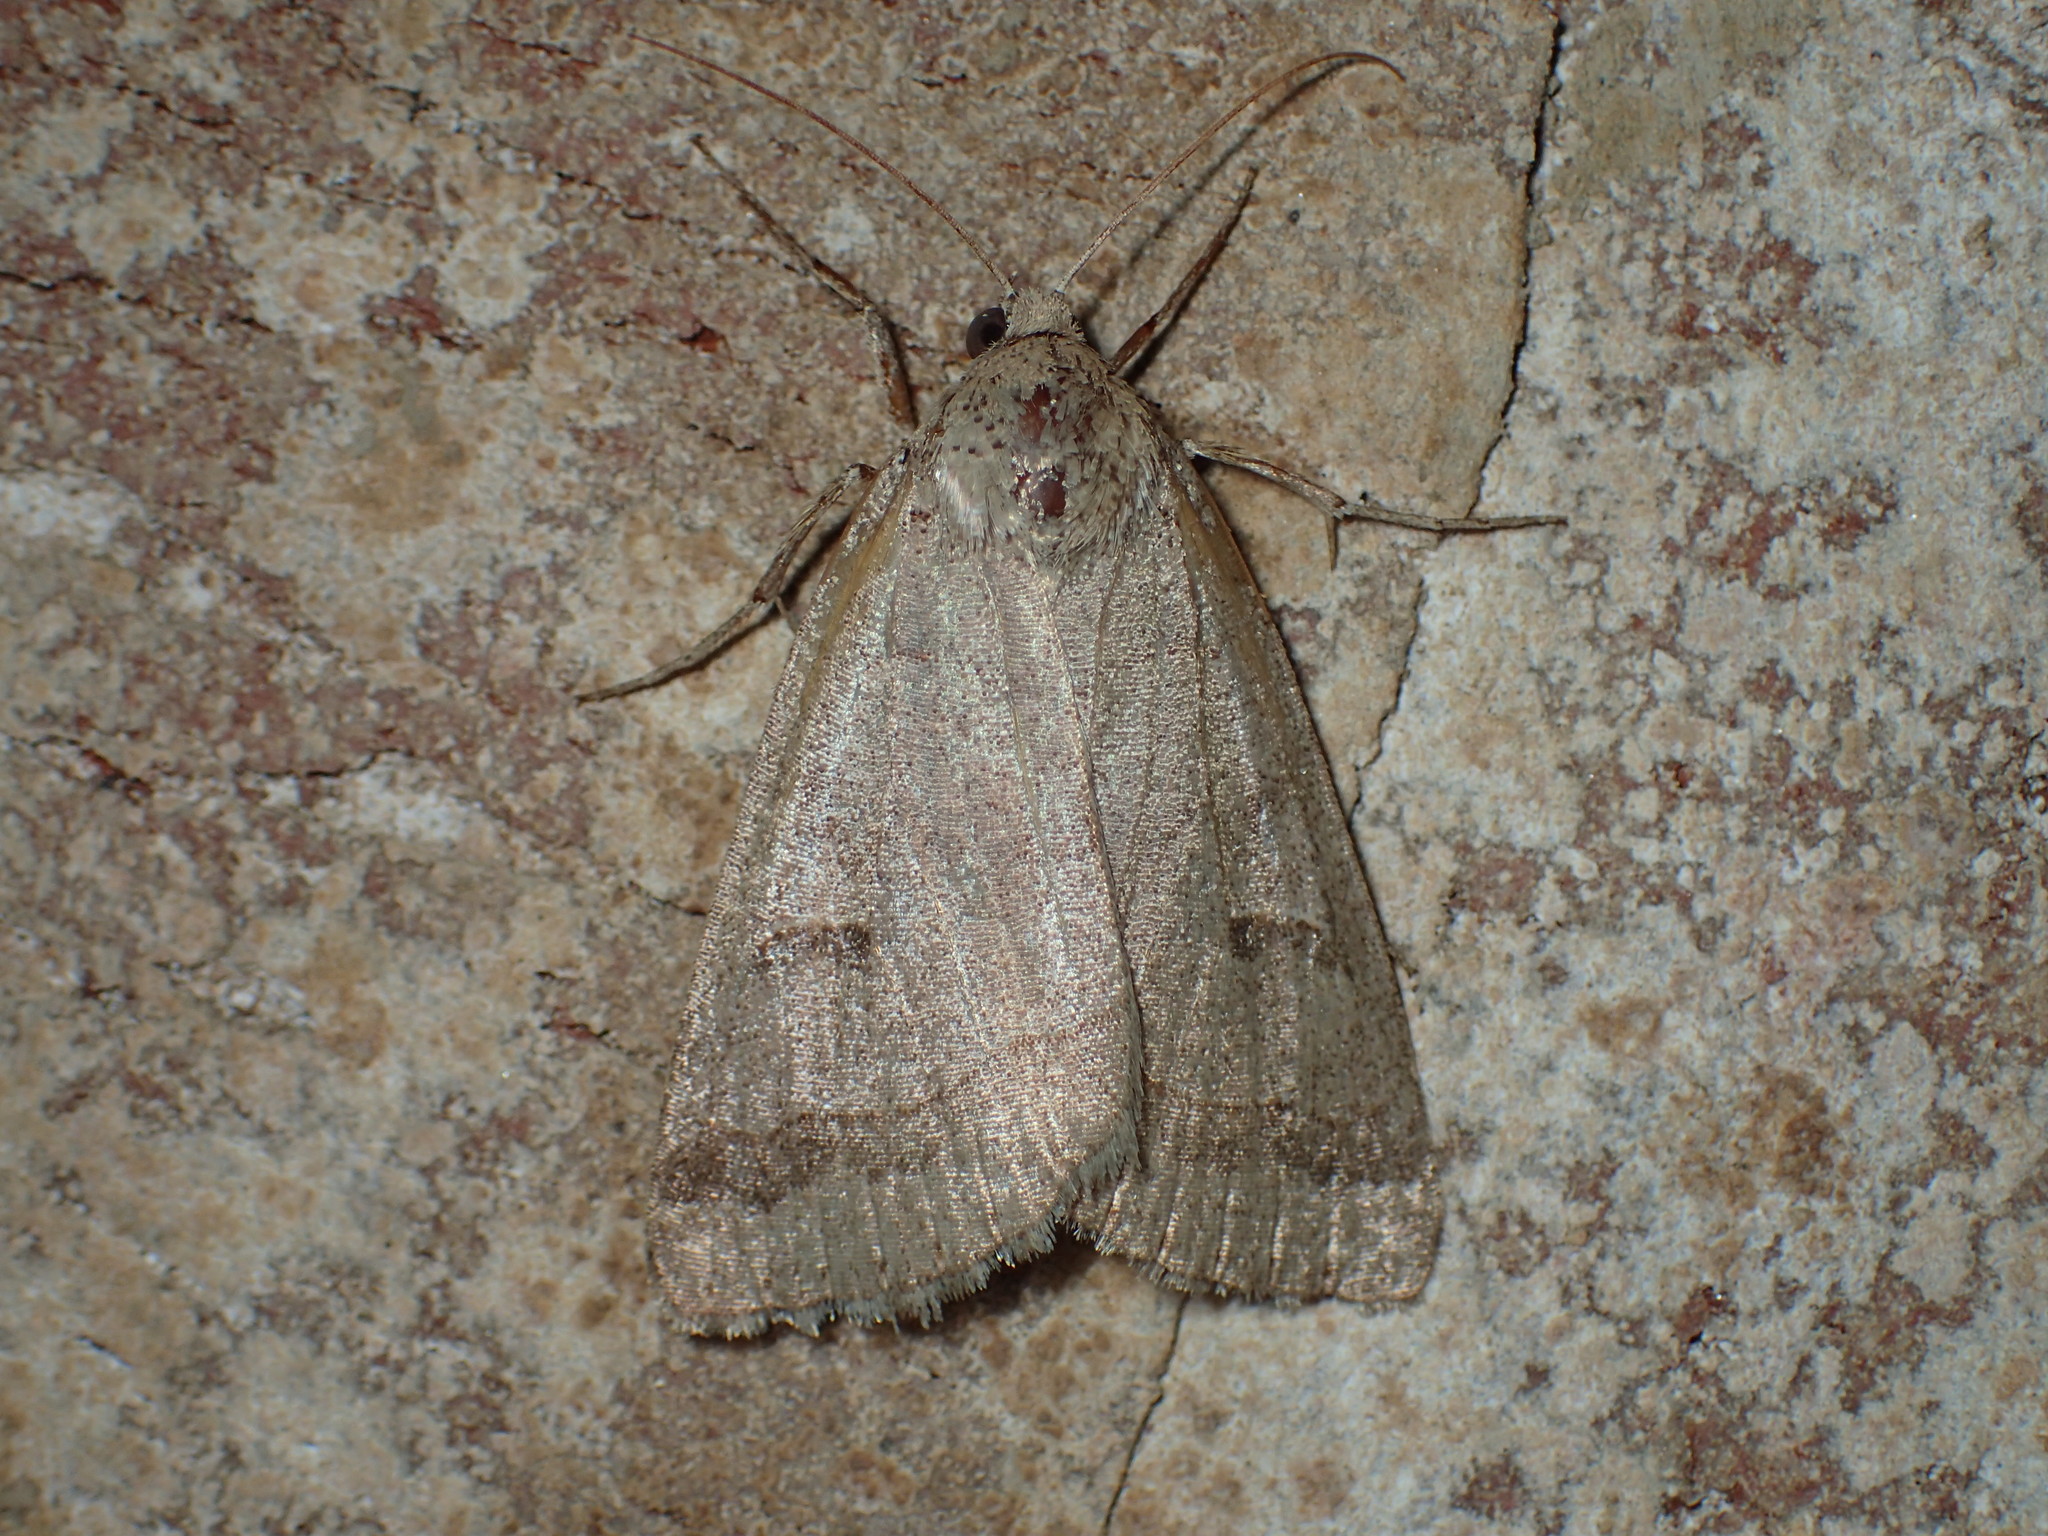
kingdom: Animalia
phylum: Arthropoda
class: Insecta
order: Lepidoptera
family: Erebidae
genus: Phoberia
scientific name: Phoberia atomaris
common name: Common oak moth
